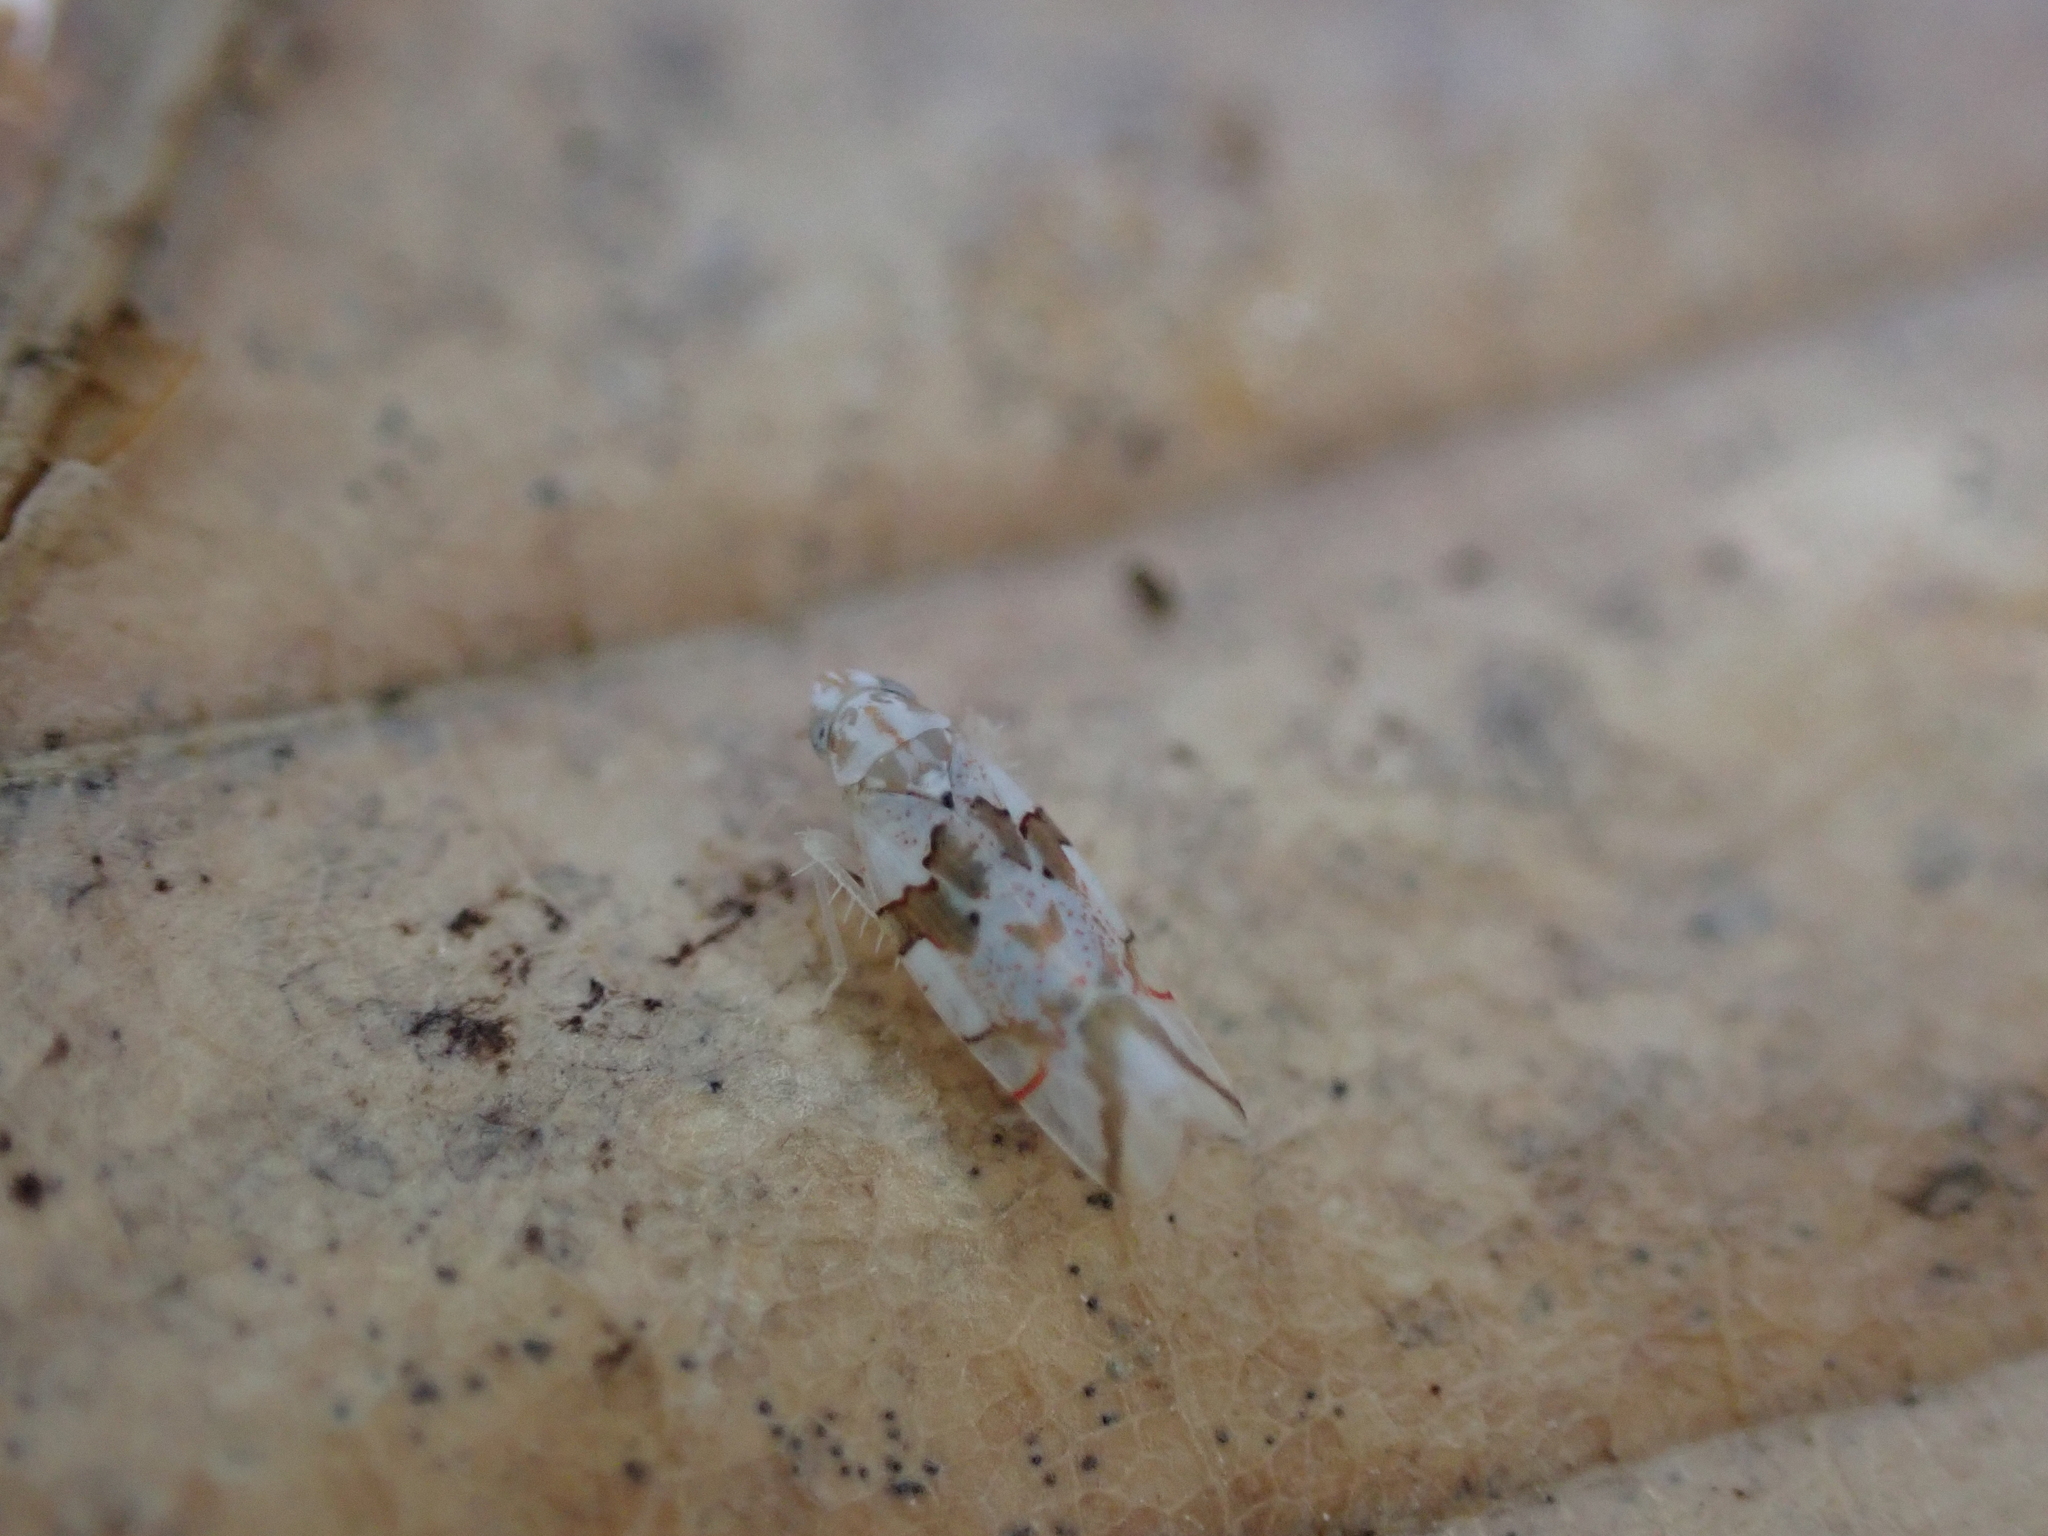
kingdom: Animalia
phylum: Arthropoda
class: Insecta
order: Hemiptera
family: Cicadellidae
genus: Hymetta
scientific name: Hymetta balteata
